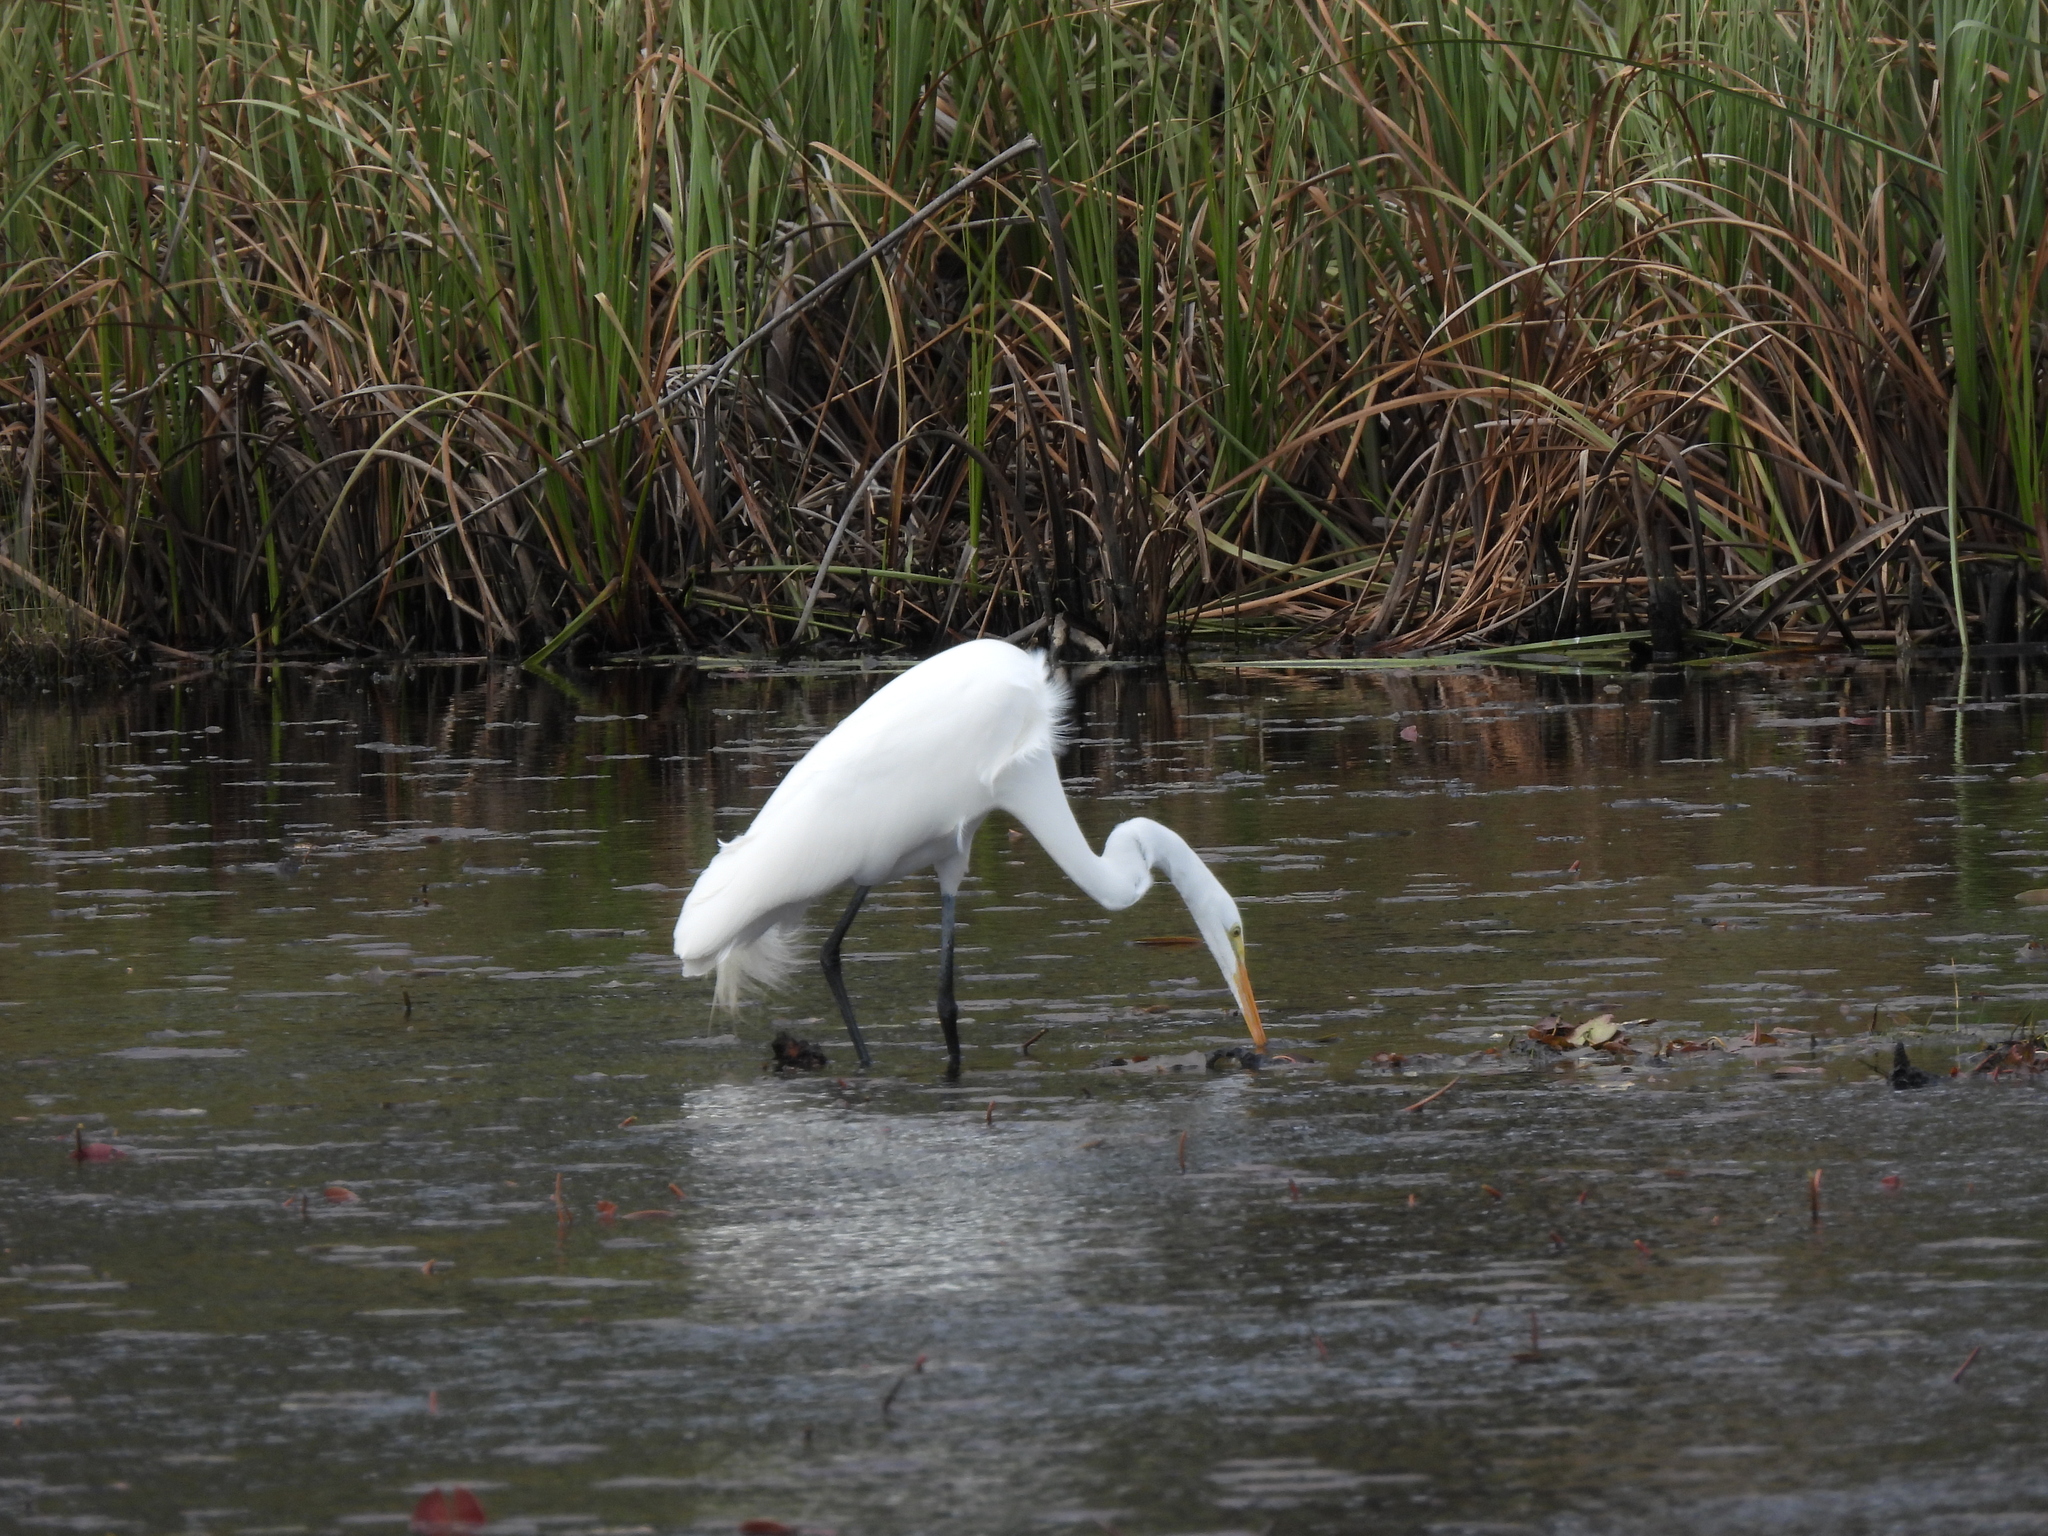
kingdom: Animalia
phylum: Chordata
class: Aves
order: Pelecaniformes
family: Ardeidae
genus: Ardea
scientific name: Ardea alba
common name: Great egret
